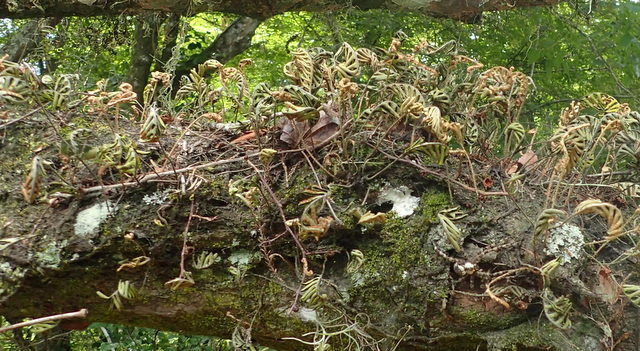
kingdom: Plantae
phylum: Tracheophyta
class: Polypodiopsida
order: Polypodiales
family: Polypodiaceae
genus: Pleopeltis
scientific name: Pleopeltis michauxiana
